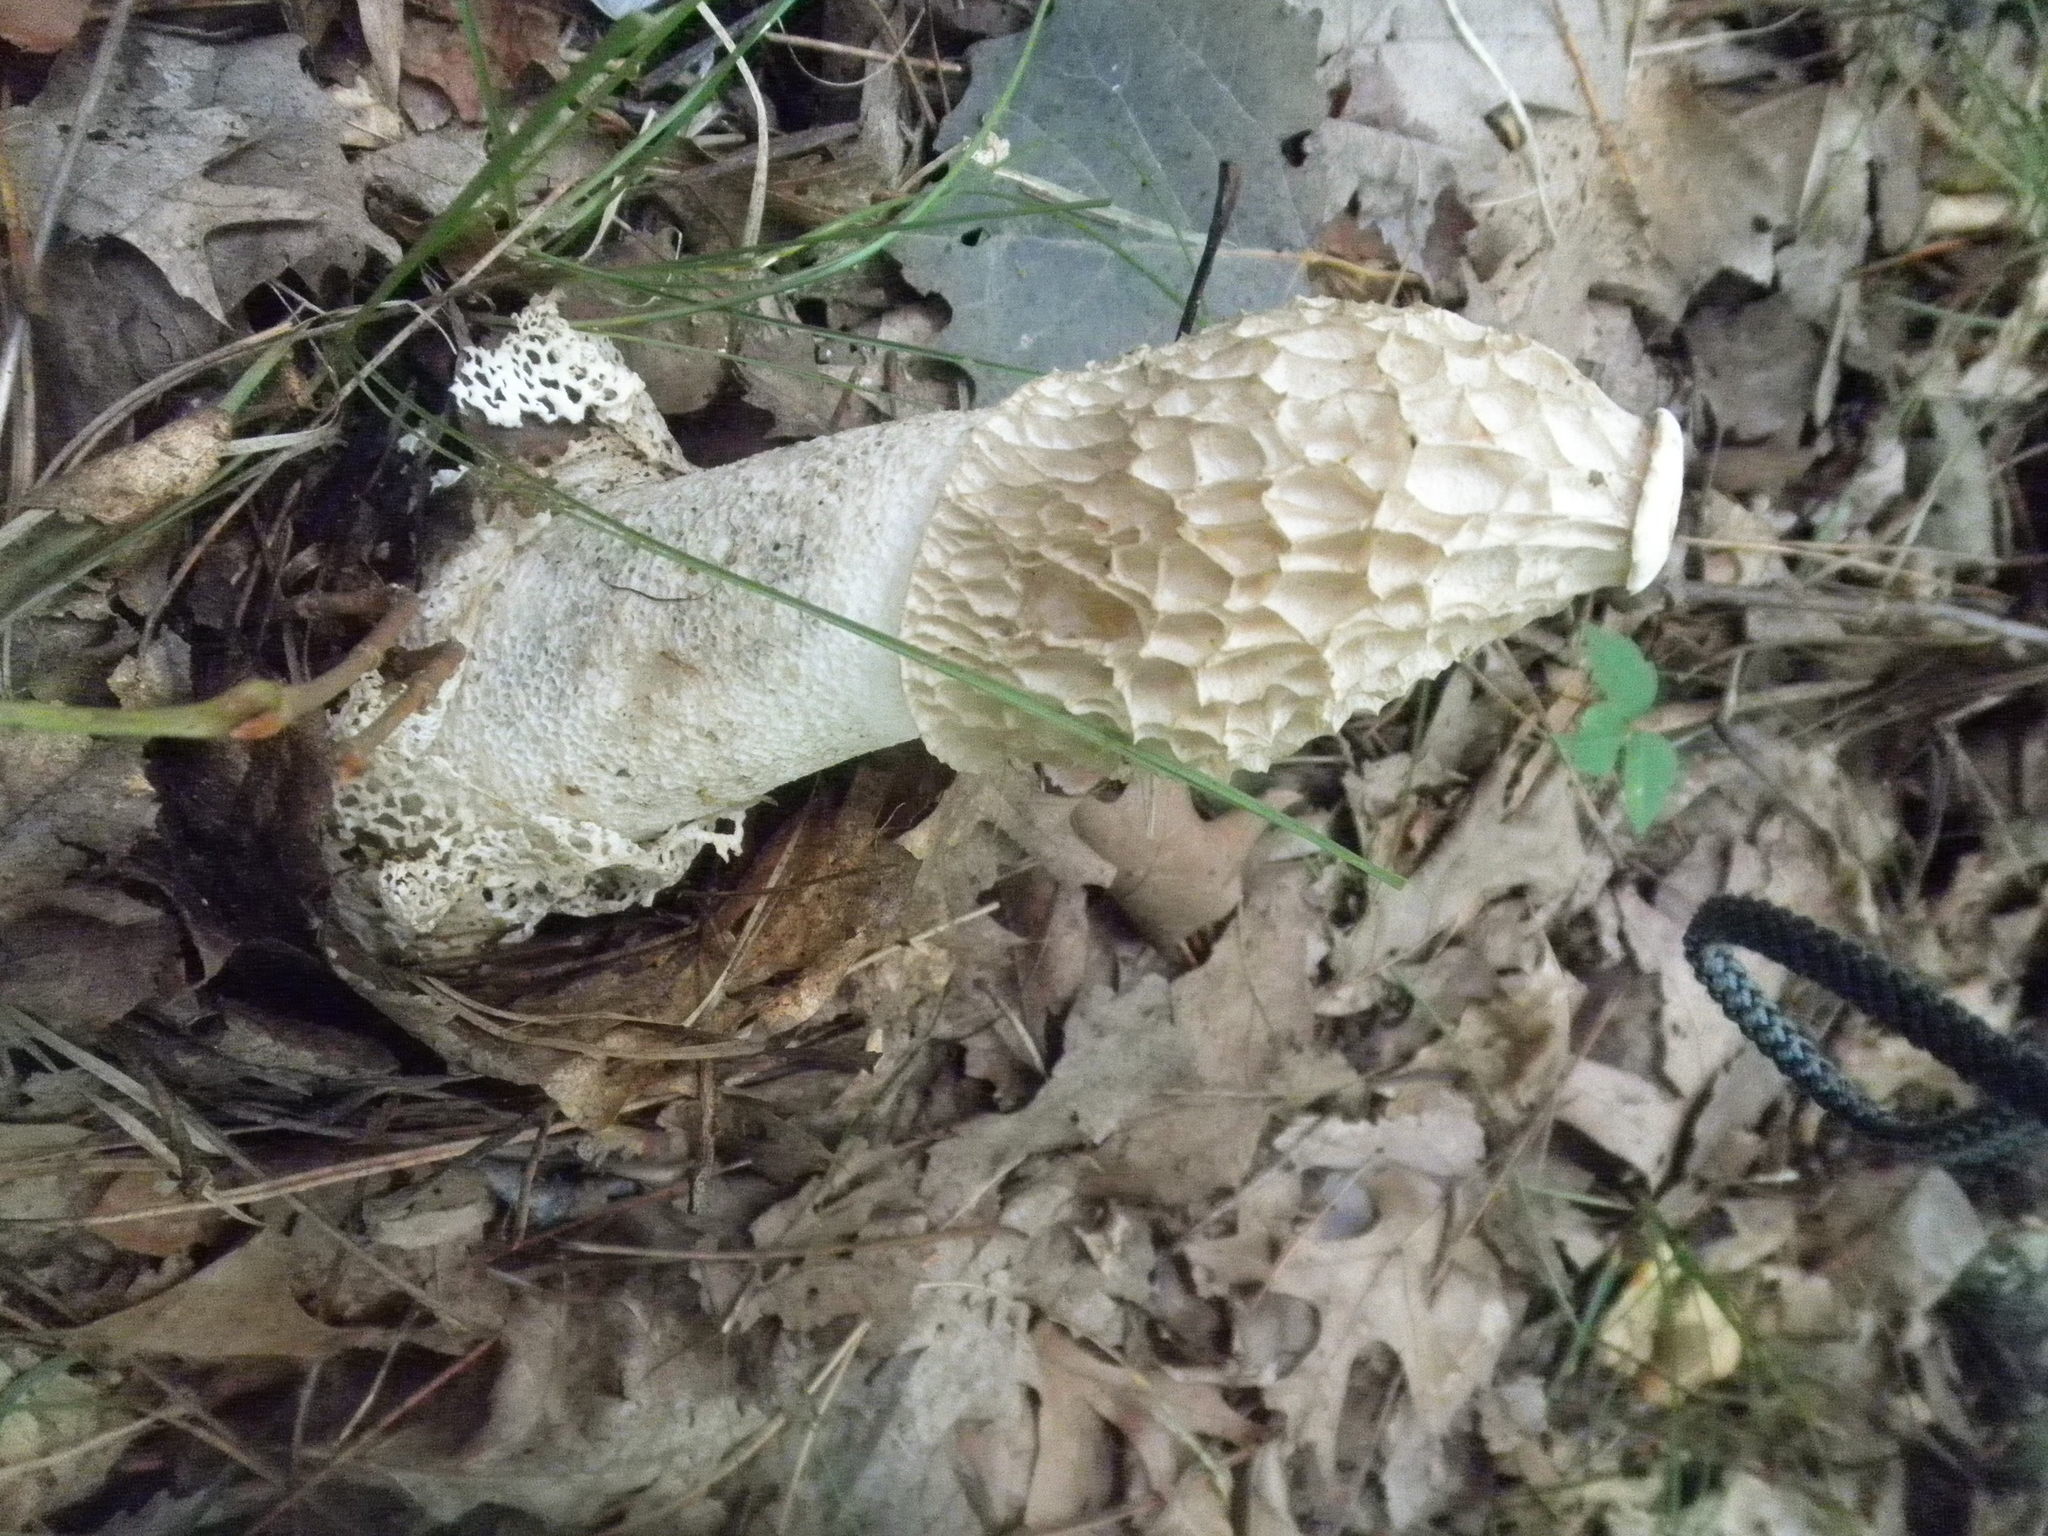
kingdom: Fungi
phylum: Basidiomycota
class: Agaricomycetes
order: Phallales
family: Phallaceae
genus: Phallus
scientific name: Phallus indusiatus
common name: Bridal veil stinkhorn
